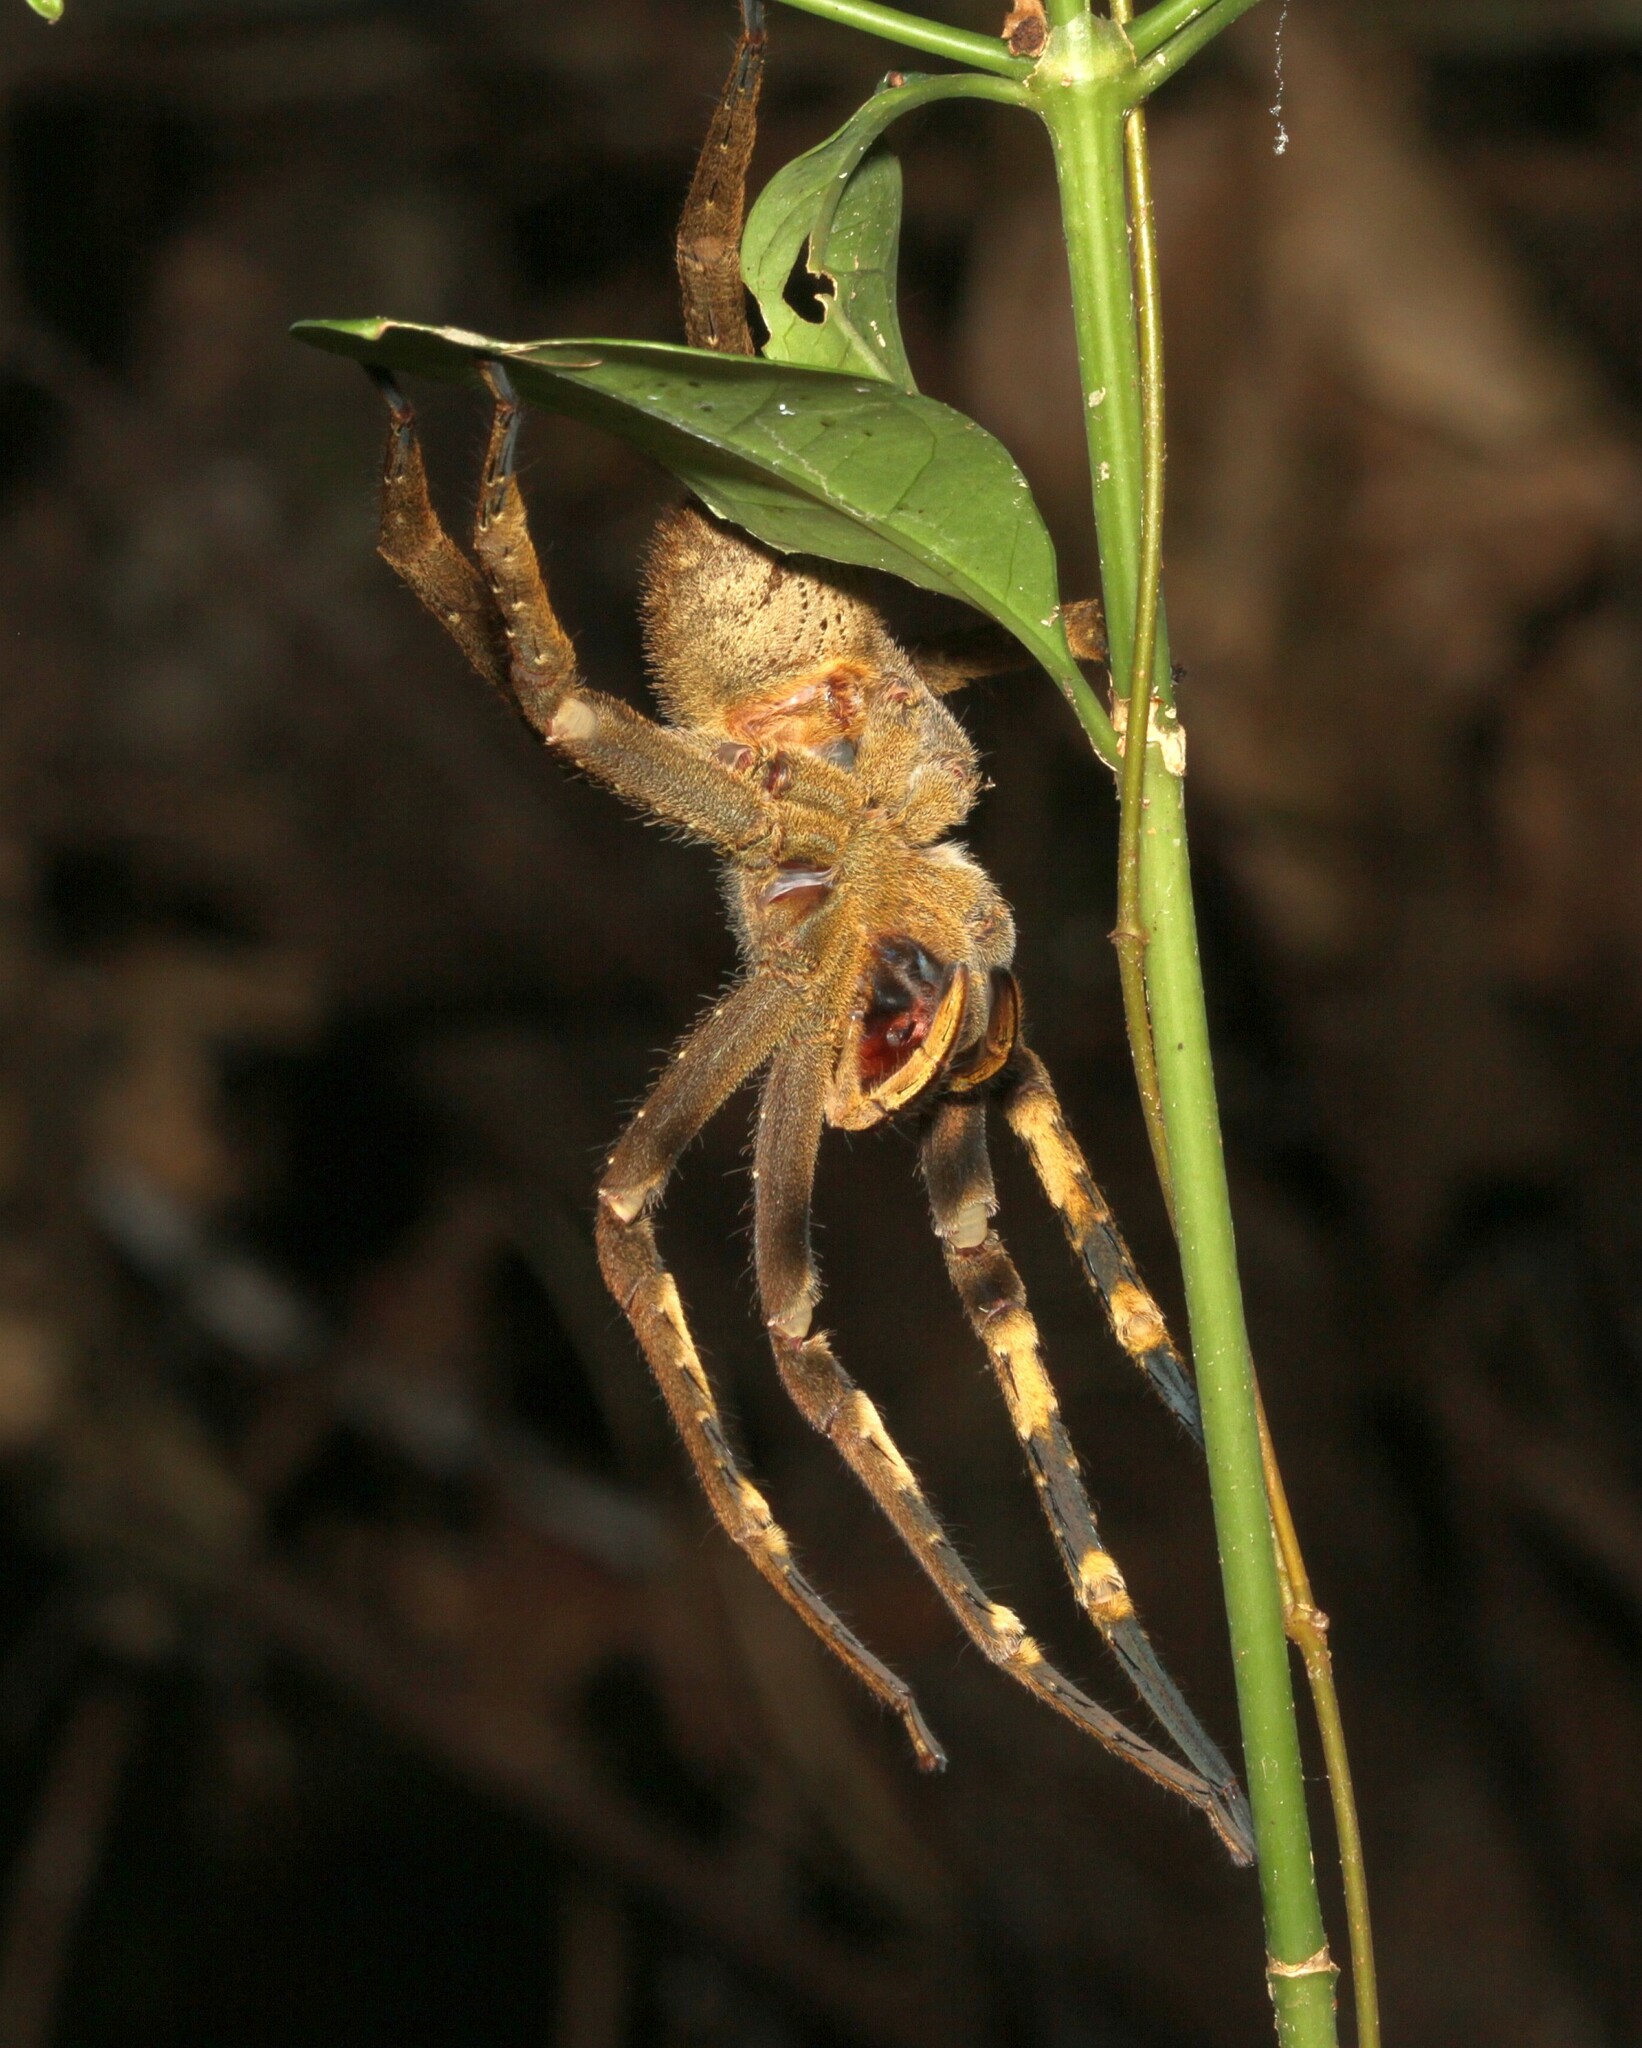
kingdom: Animalia
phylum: Arthropoda
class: Arachnida
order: Araneae
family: Ctenidae
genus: Phoneutria
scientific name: Phoneutria fera
